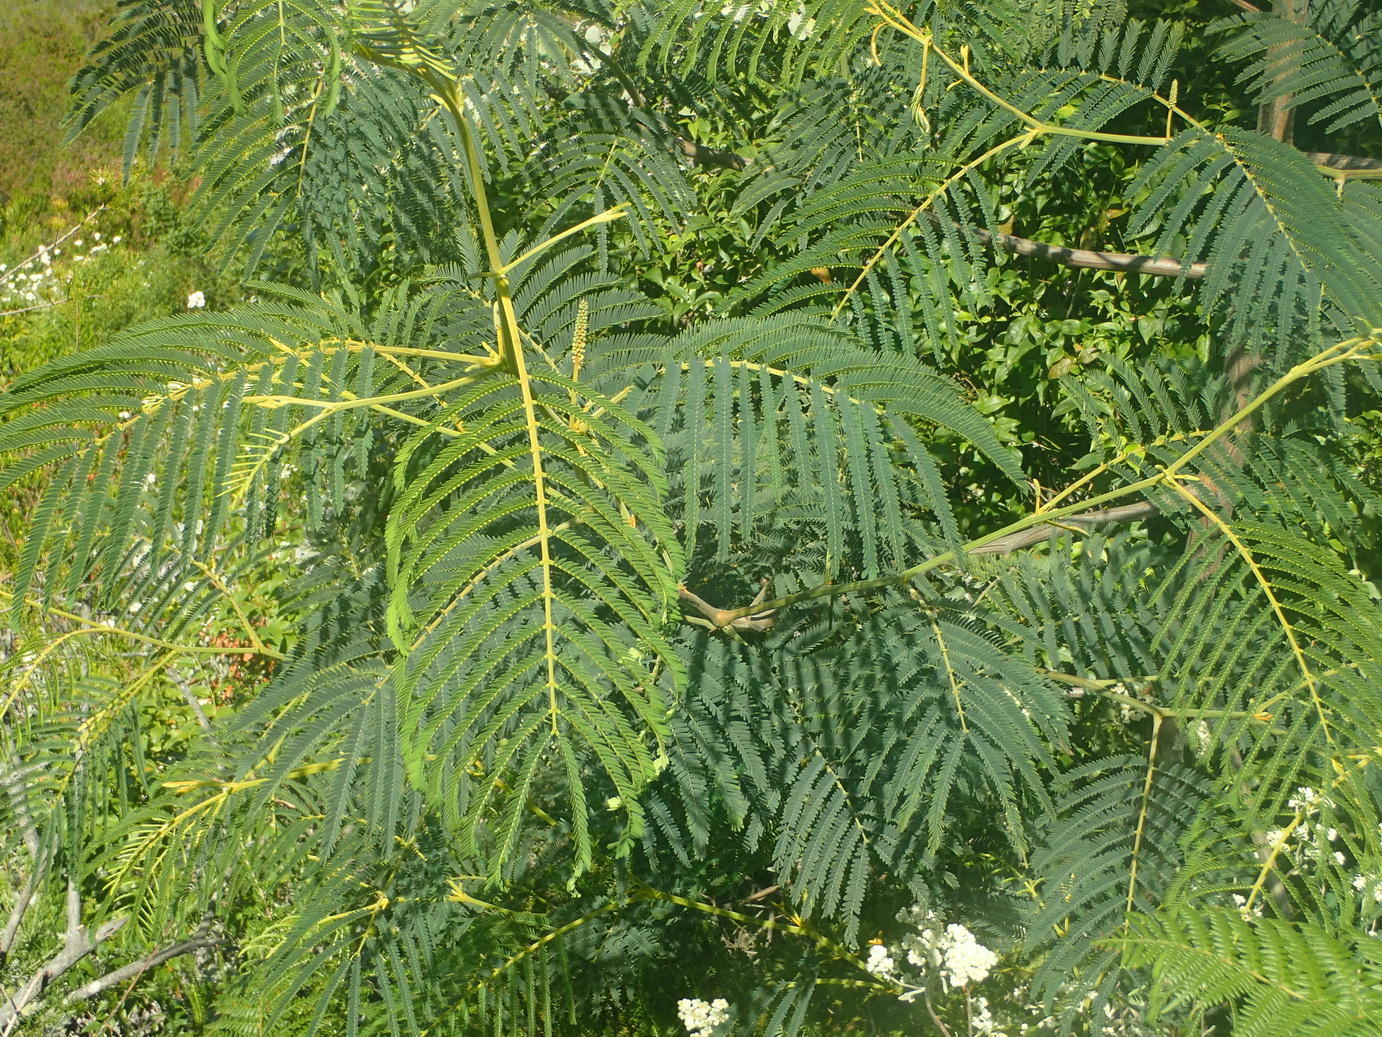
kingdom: Plantae
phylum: Tracheophyta
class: Magnoliopsida
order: Fabales
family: Fabaceae
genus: Paraserianthes
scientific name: Paraserianthes lophantha
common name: Plume albizia
